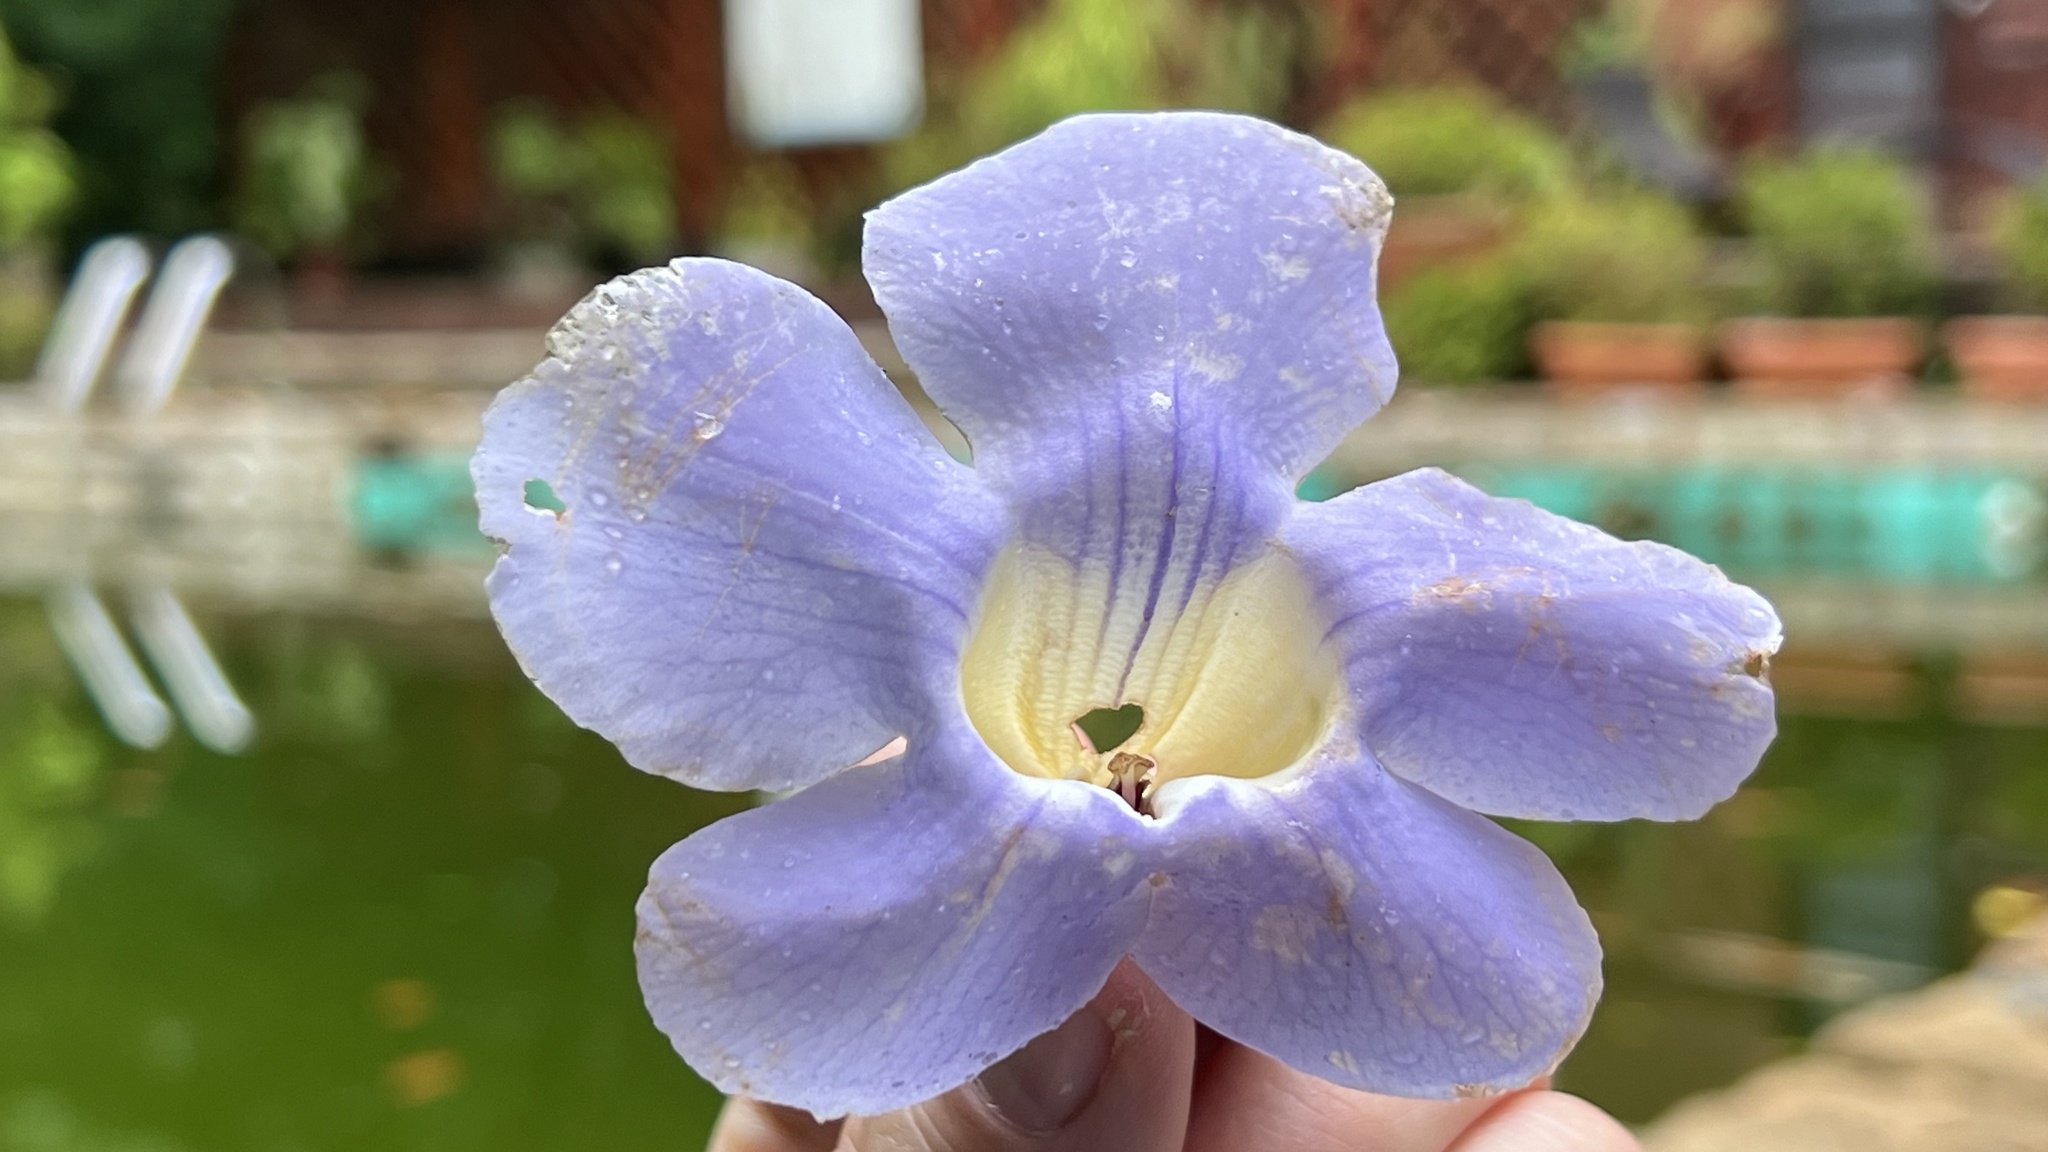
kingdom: Plantae
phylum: Tracheophyta
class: Magnoliopsida
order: Lamiales
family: Acanthaceae
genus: Thunbergia
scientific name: Thunbergia grandiflora
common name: Bengal trumpet
